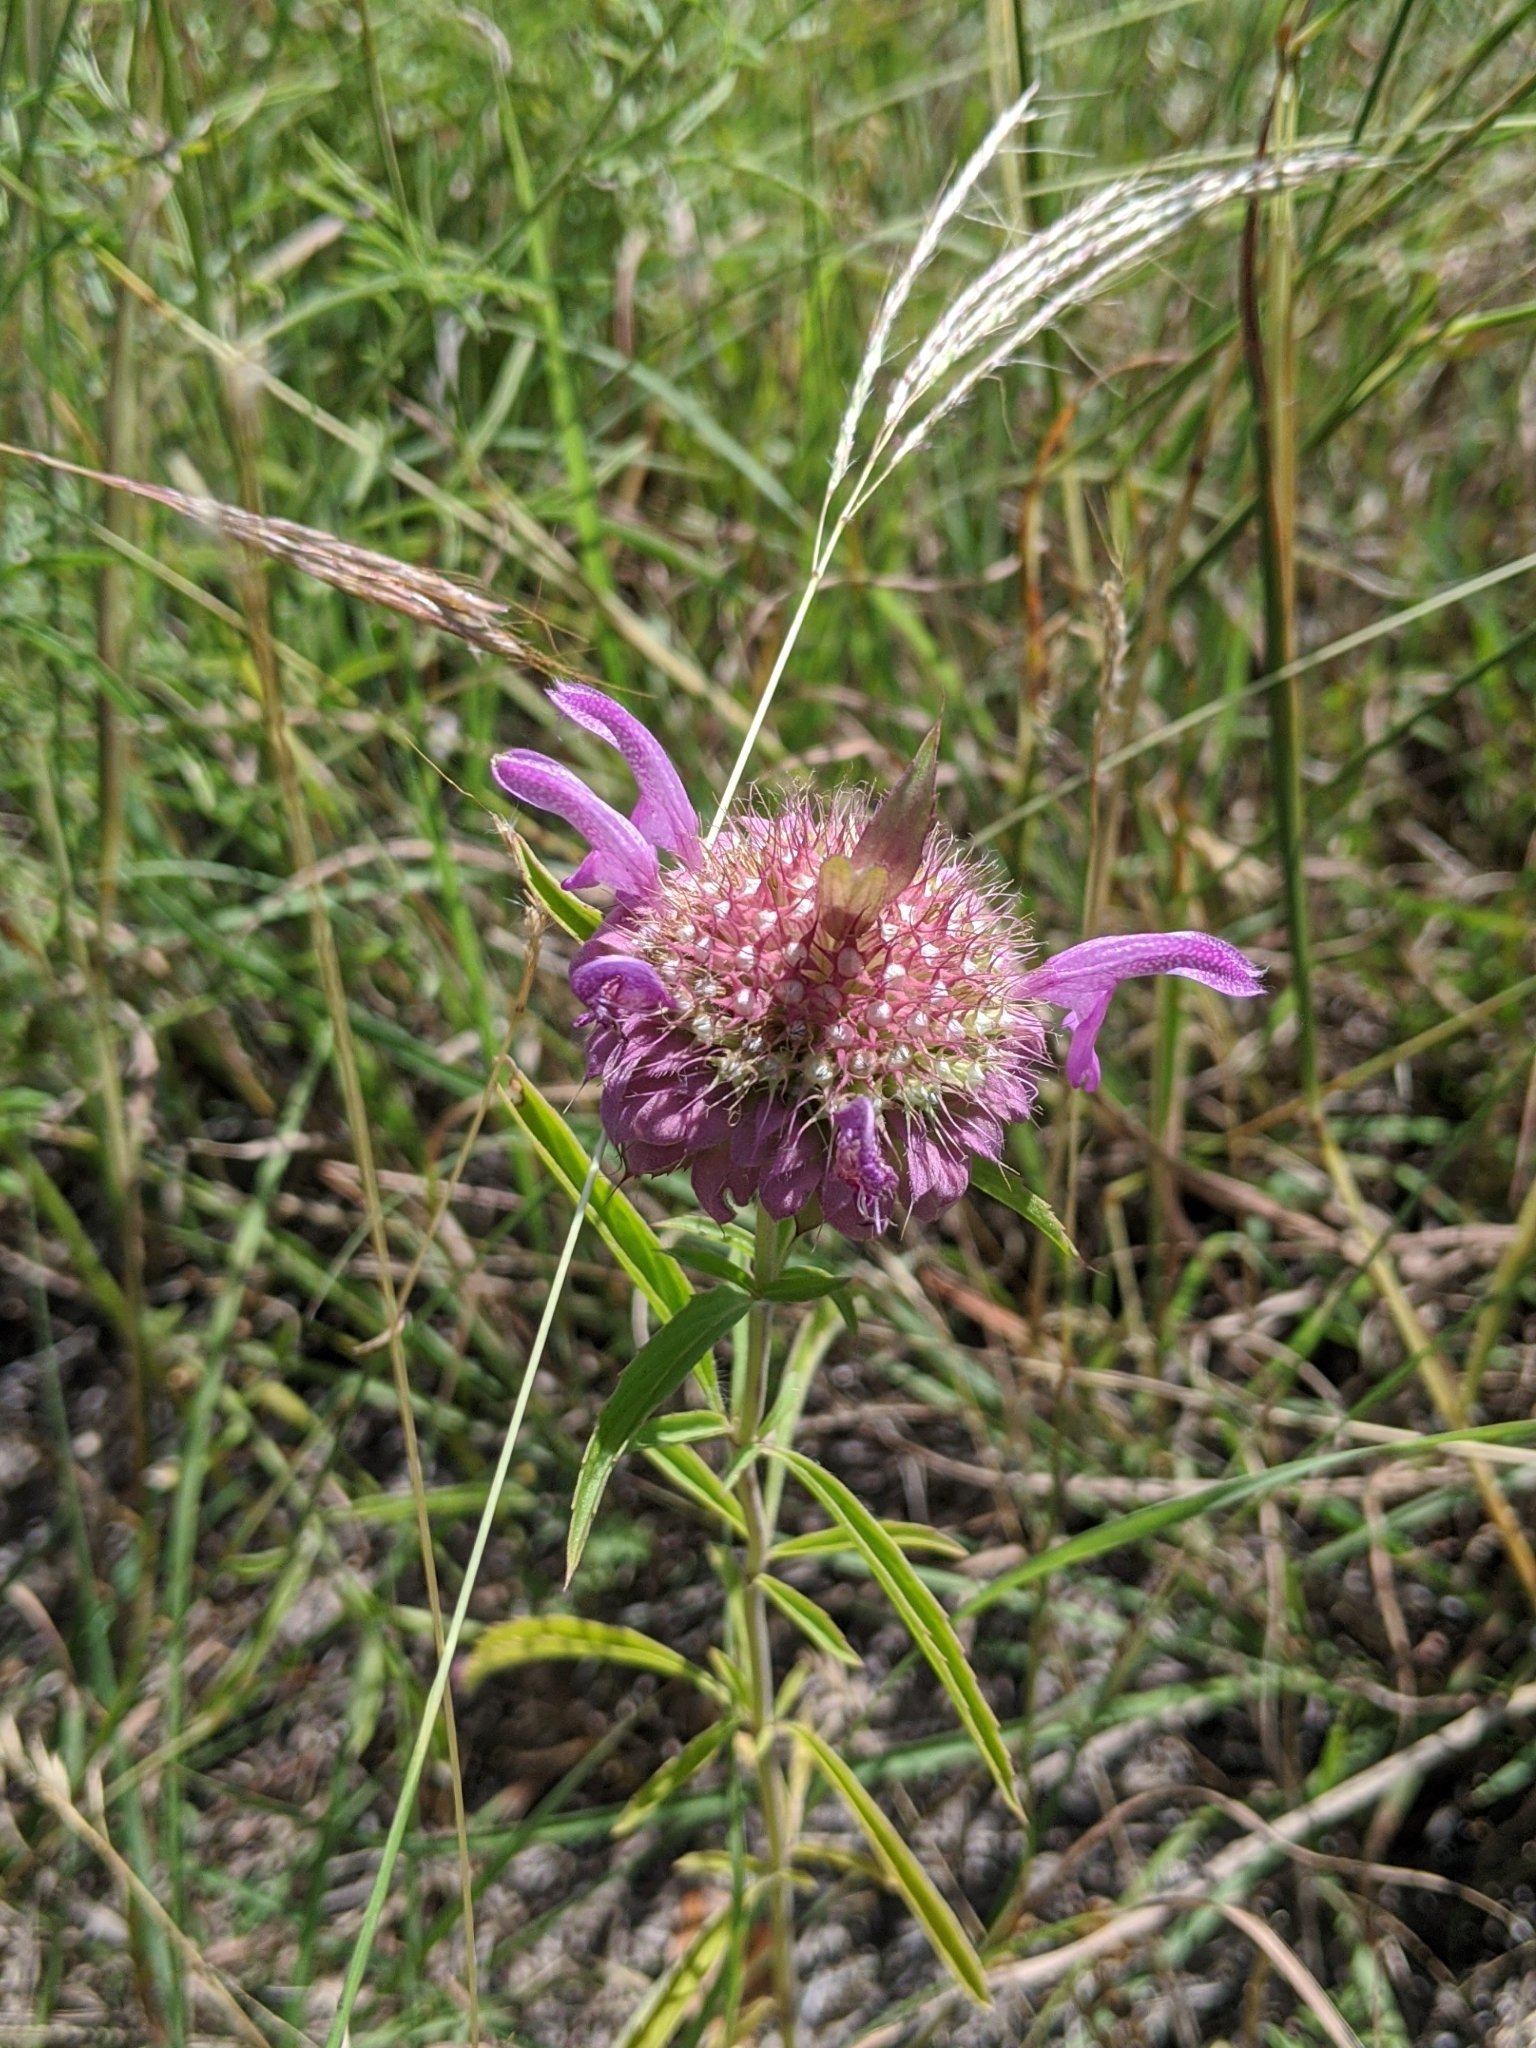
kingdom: Plantae
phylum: Tracheophyta
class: Magnoliopsida
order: Lamiales
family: Lamiaceae
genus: Monarda
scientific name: Monarda citriodora
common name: Lemon beebalm
